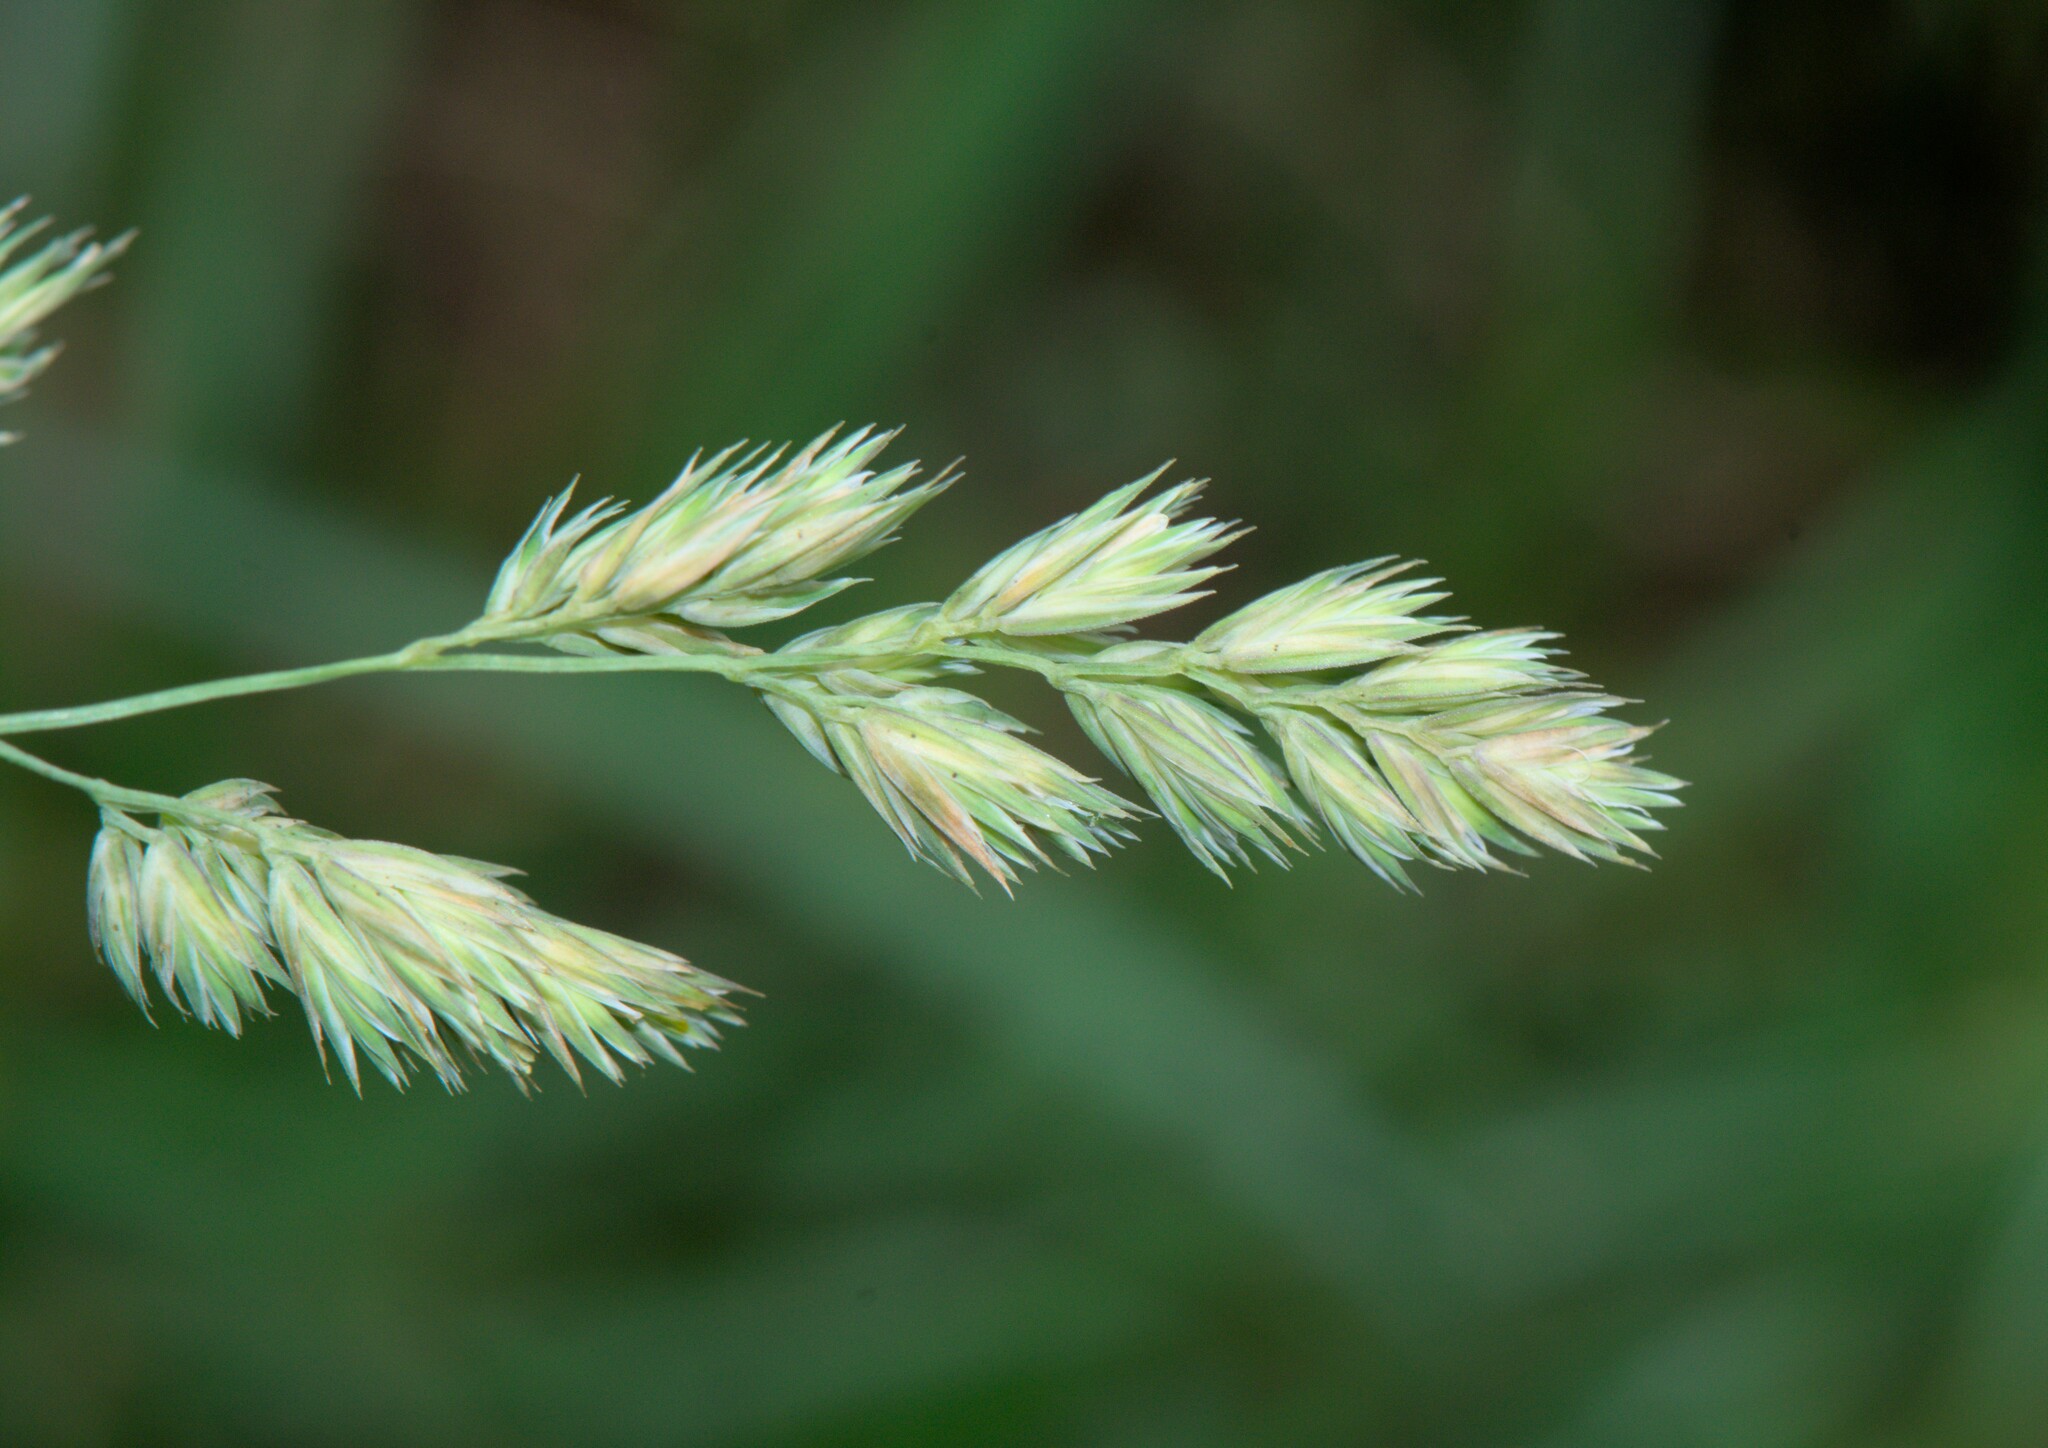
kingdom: Plantae
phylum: Tracheophyta
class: Liliopsida
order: Poales
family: Poaceae
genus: Dactylis
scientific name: Dactylis glomerata
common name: Orchardgrass
